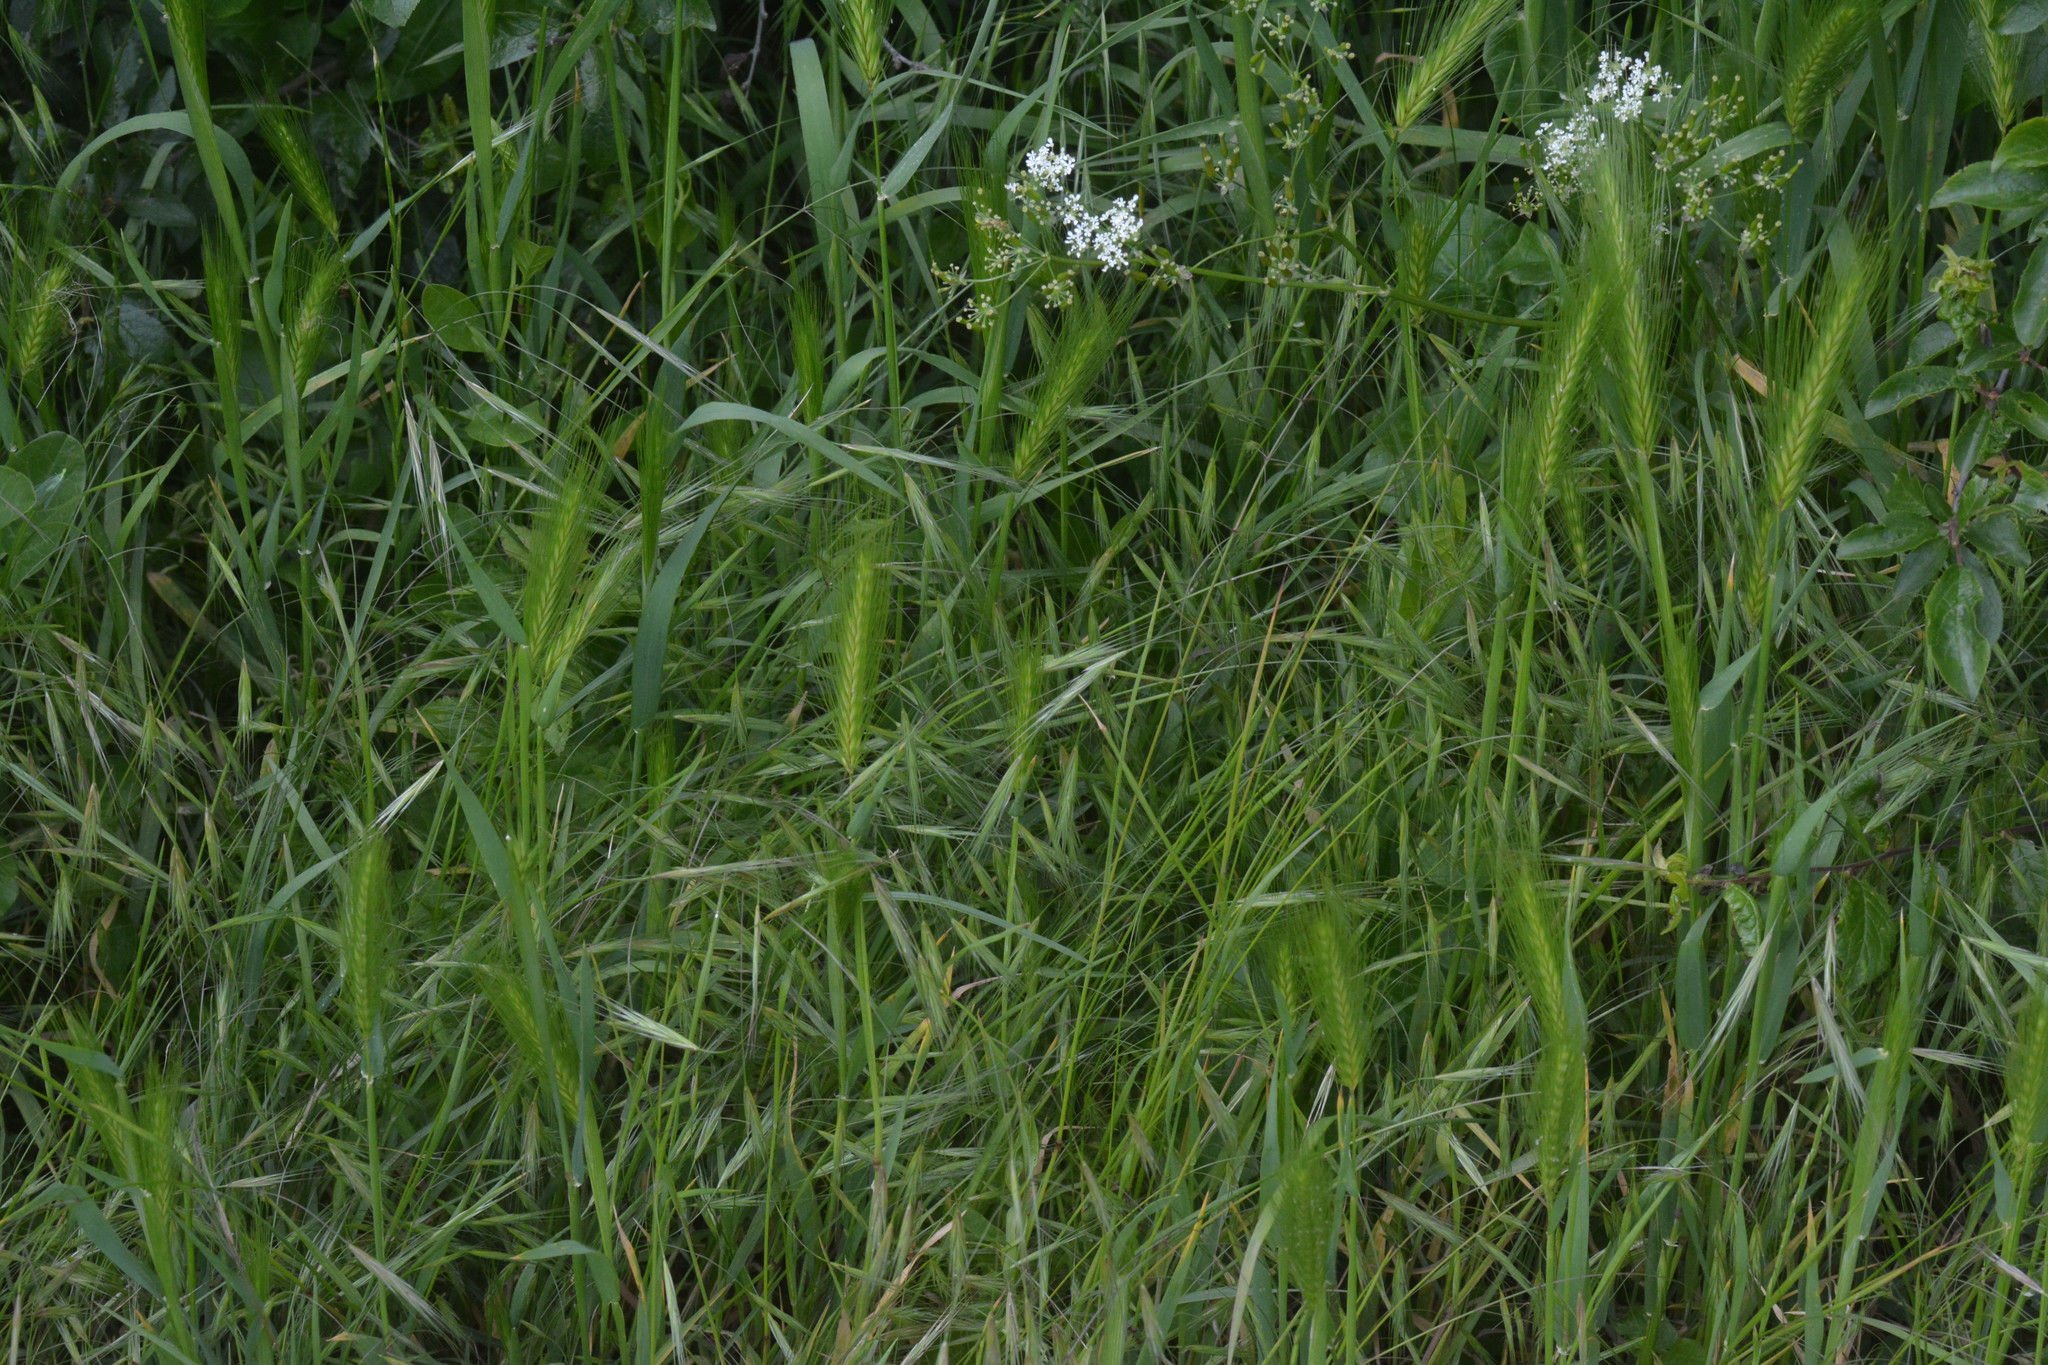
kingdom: Plantae
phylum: Tracheophyta
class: Liliopsida
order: Poales
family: Poaceae
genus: Hordeum
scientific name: Hordeum murinum
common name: Wall barley
